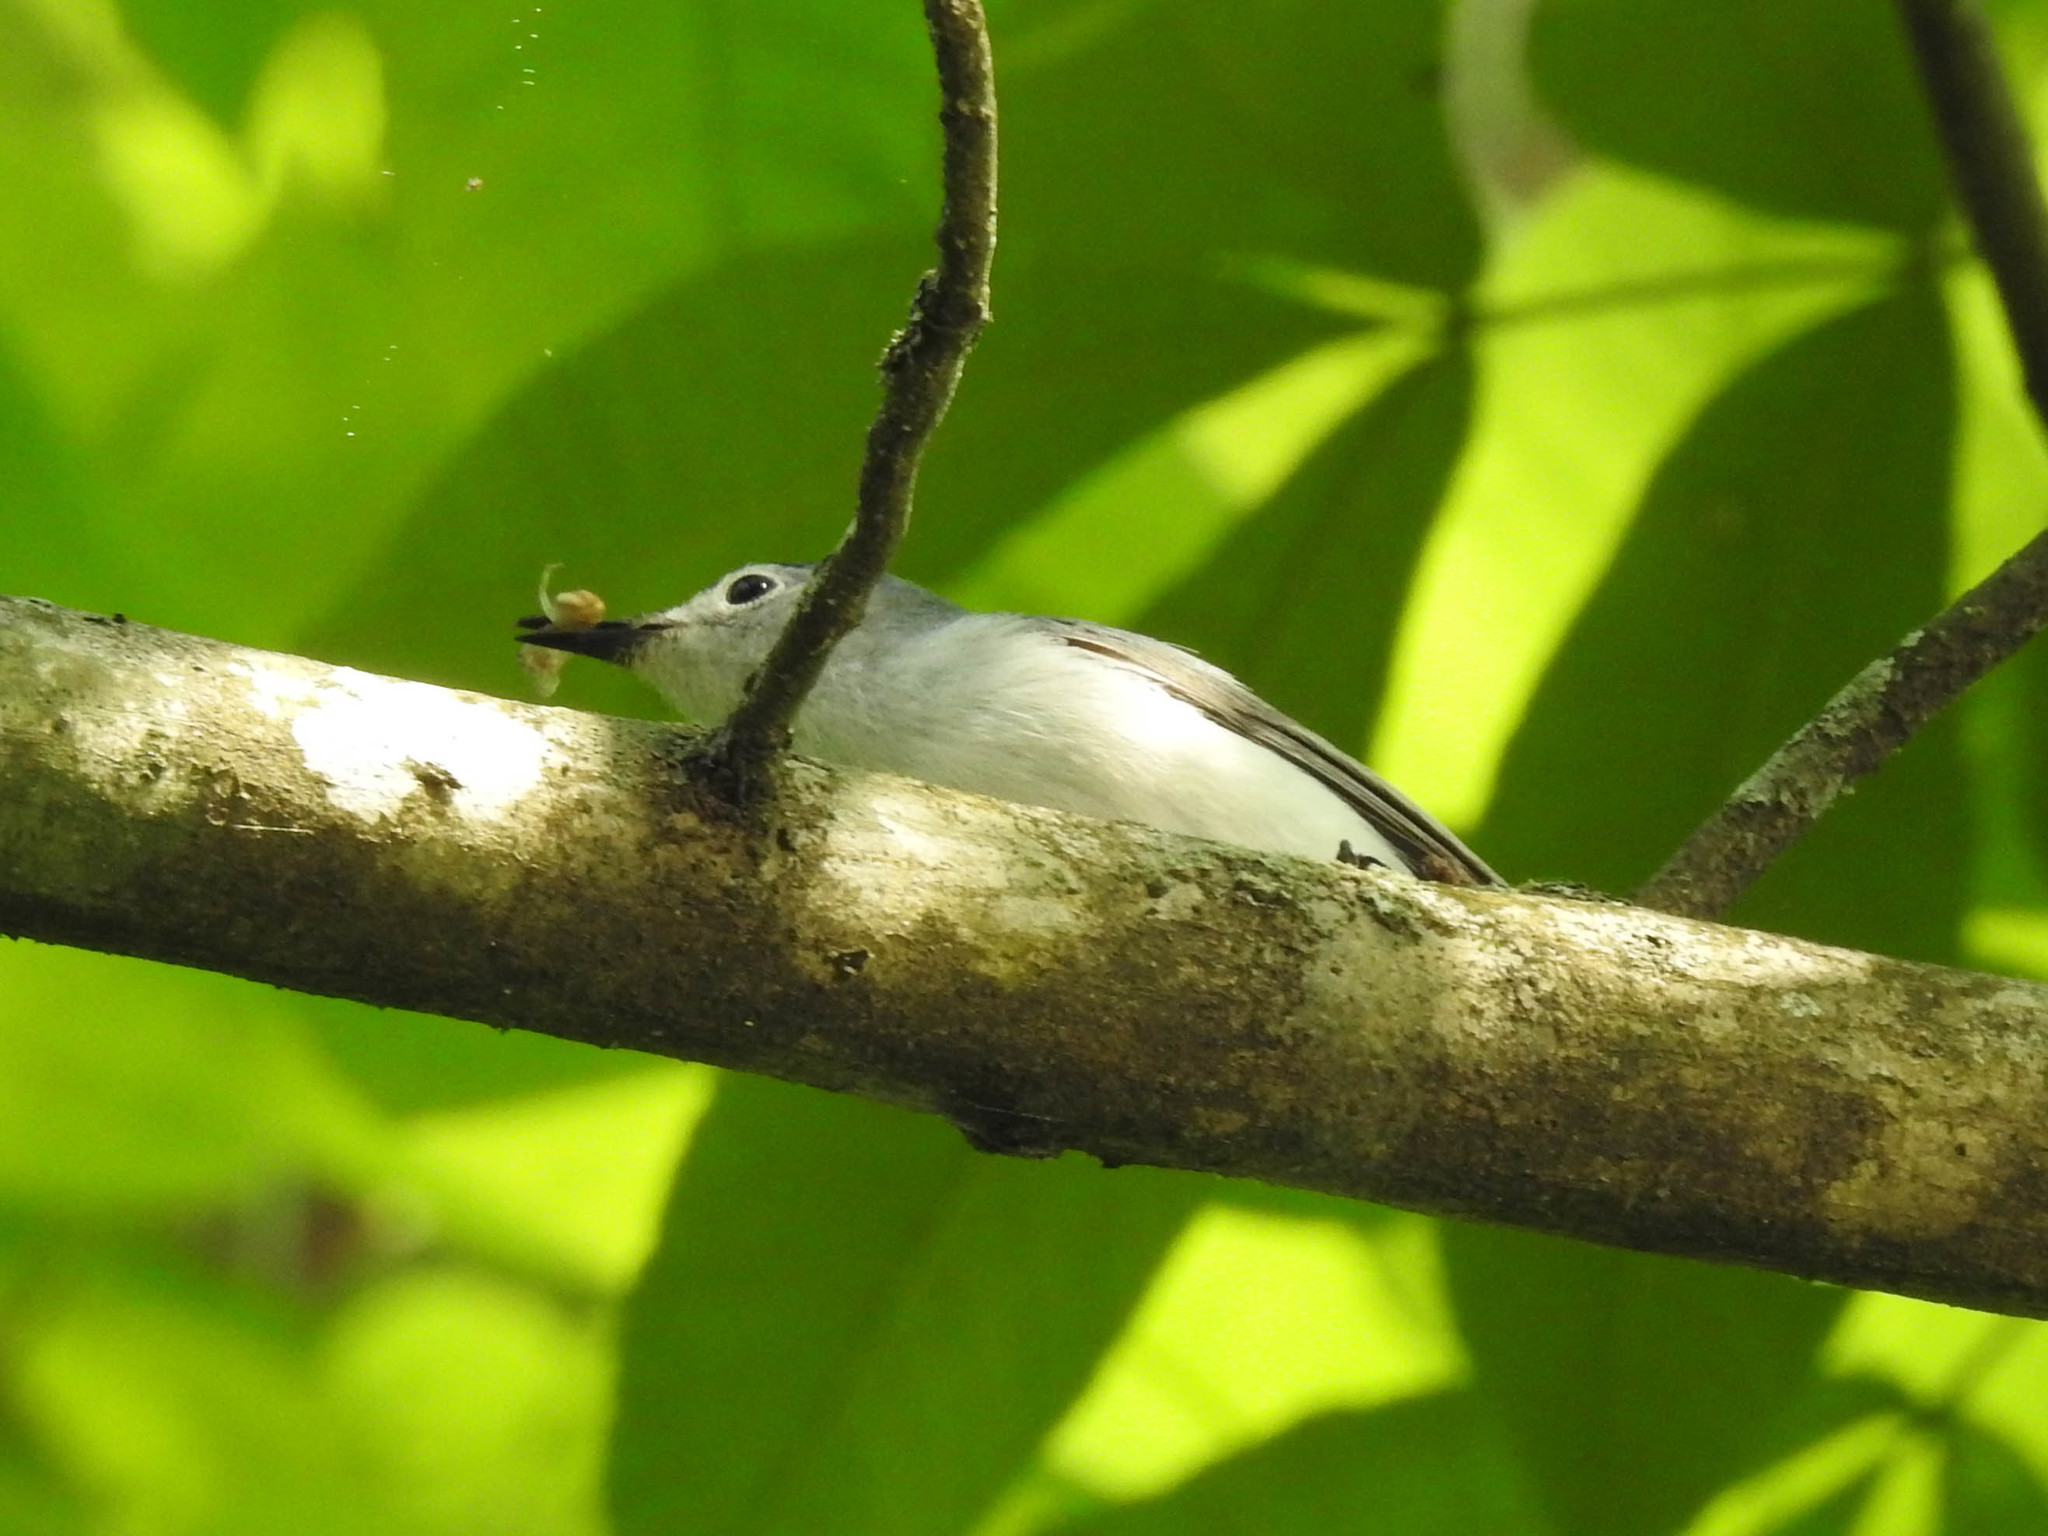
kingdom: Animalia
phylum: Chordata
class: Aves
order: Passeriformes
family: Polioptilidae
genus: Polioptila
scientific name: Polioptila caerulea
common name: Blue-gray gnatcatcher
